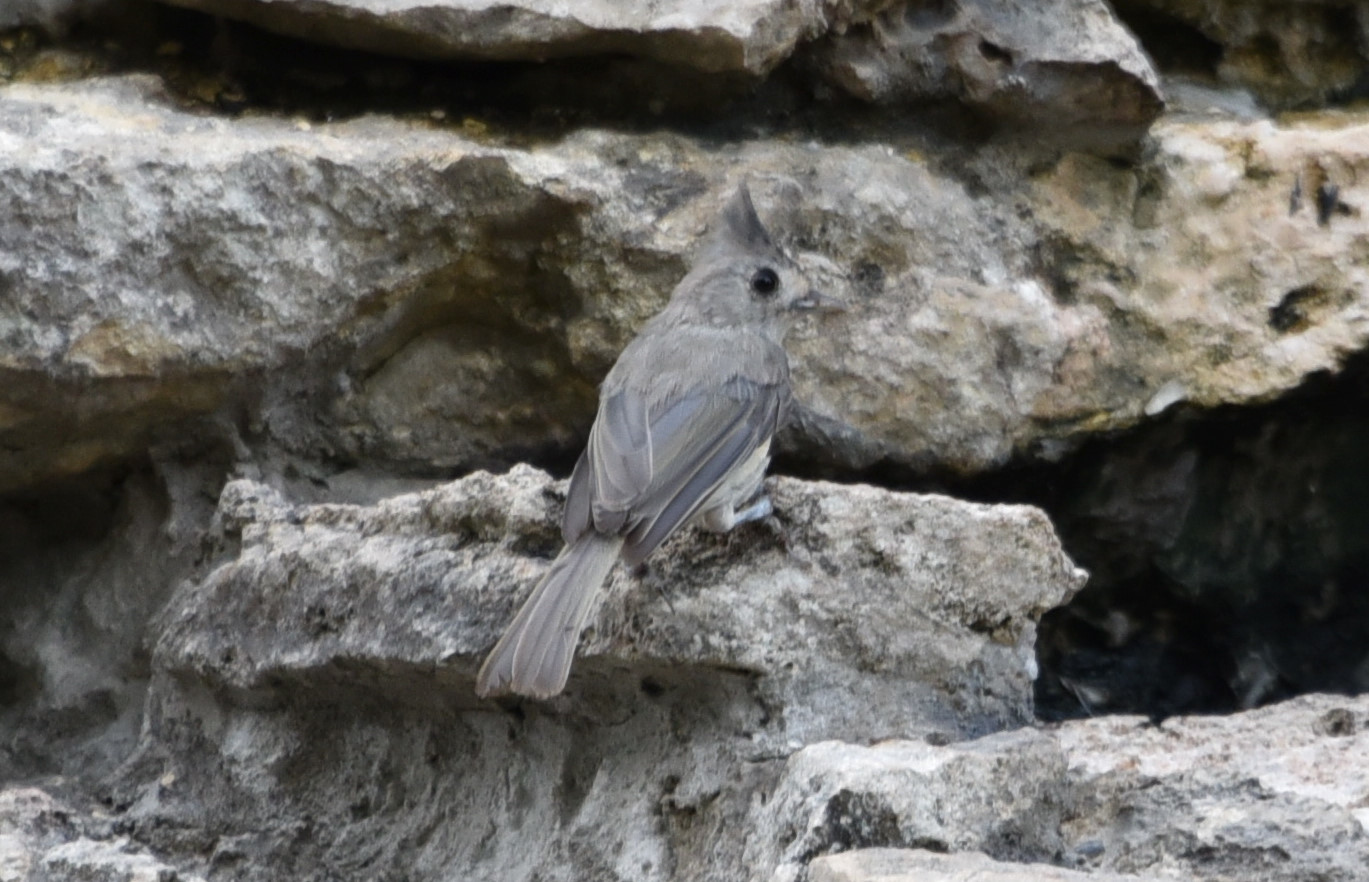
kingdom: Animalia
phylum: Chordata
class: Aves
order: Passeriformes
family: Paridae
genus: Baeolophus
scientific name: Baeolophus atricristatus
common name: Black-crested titmouse
